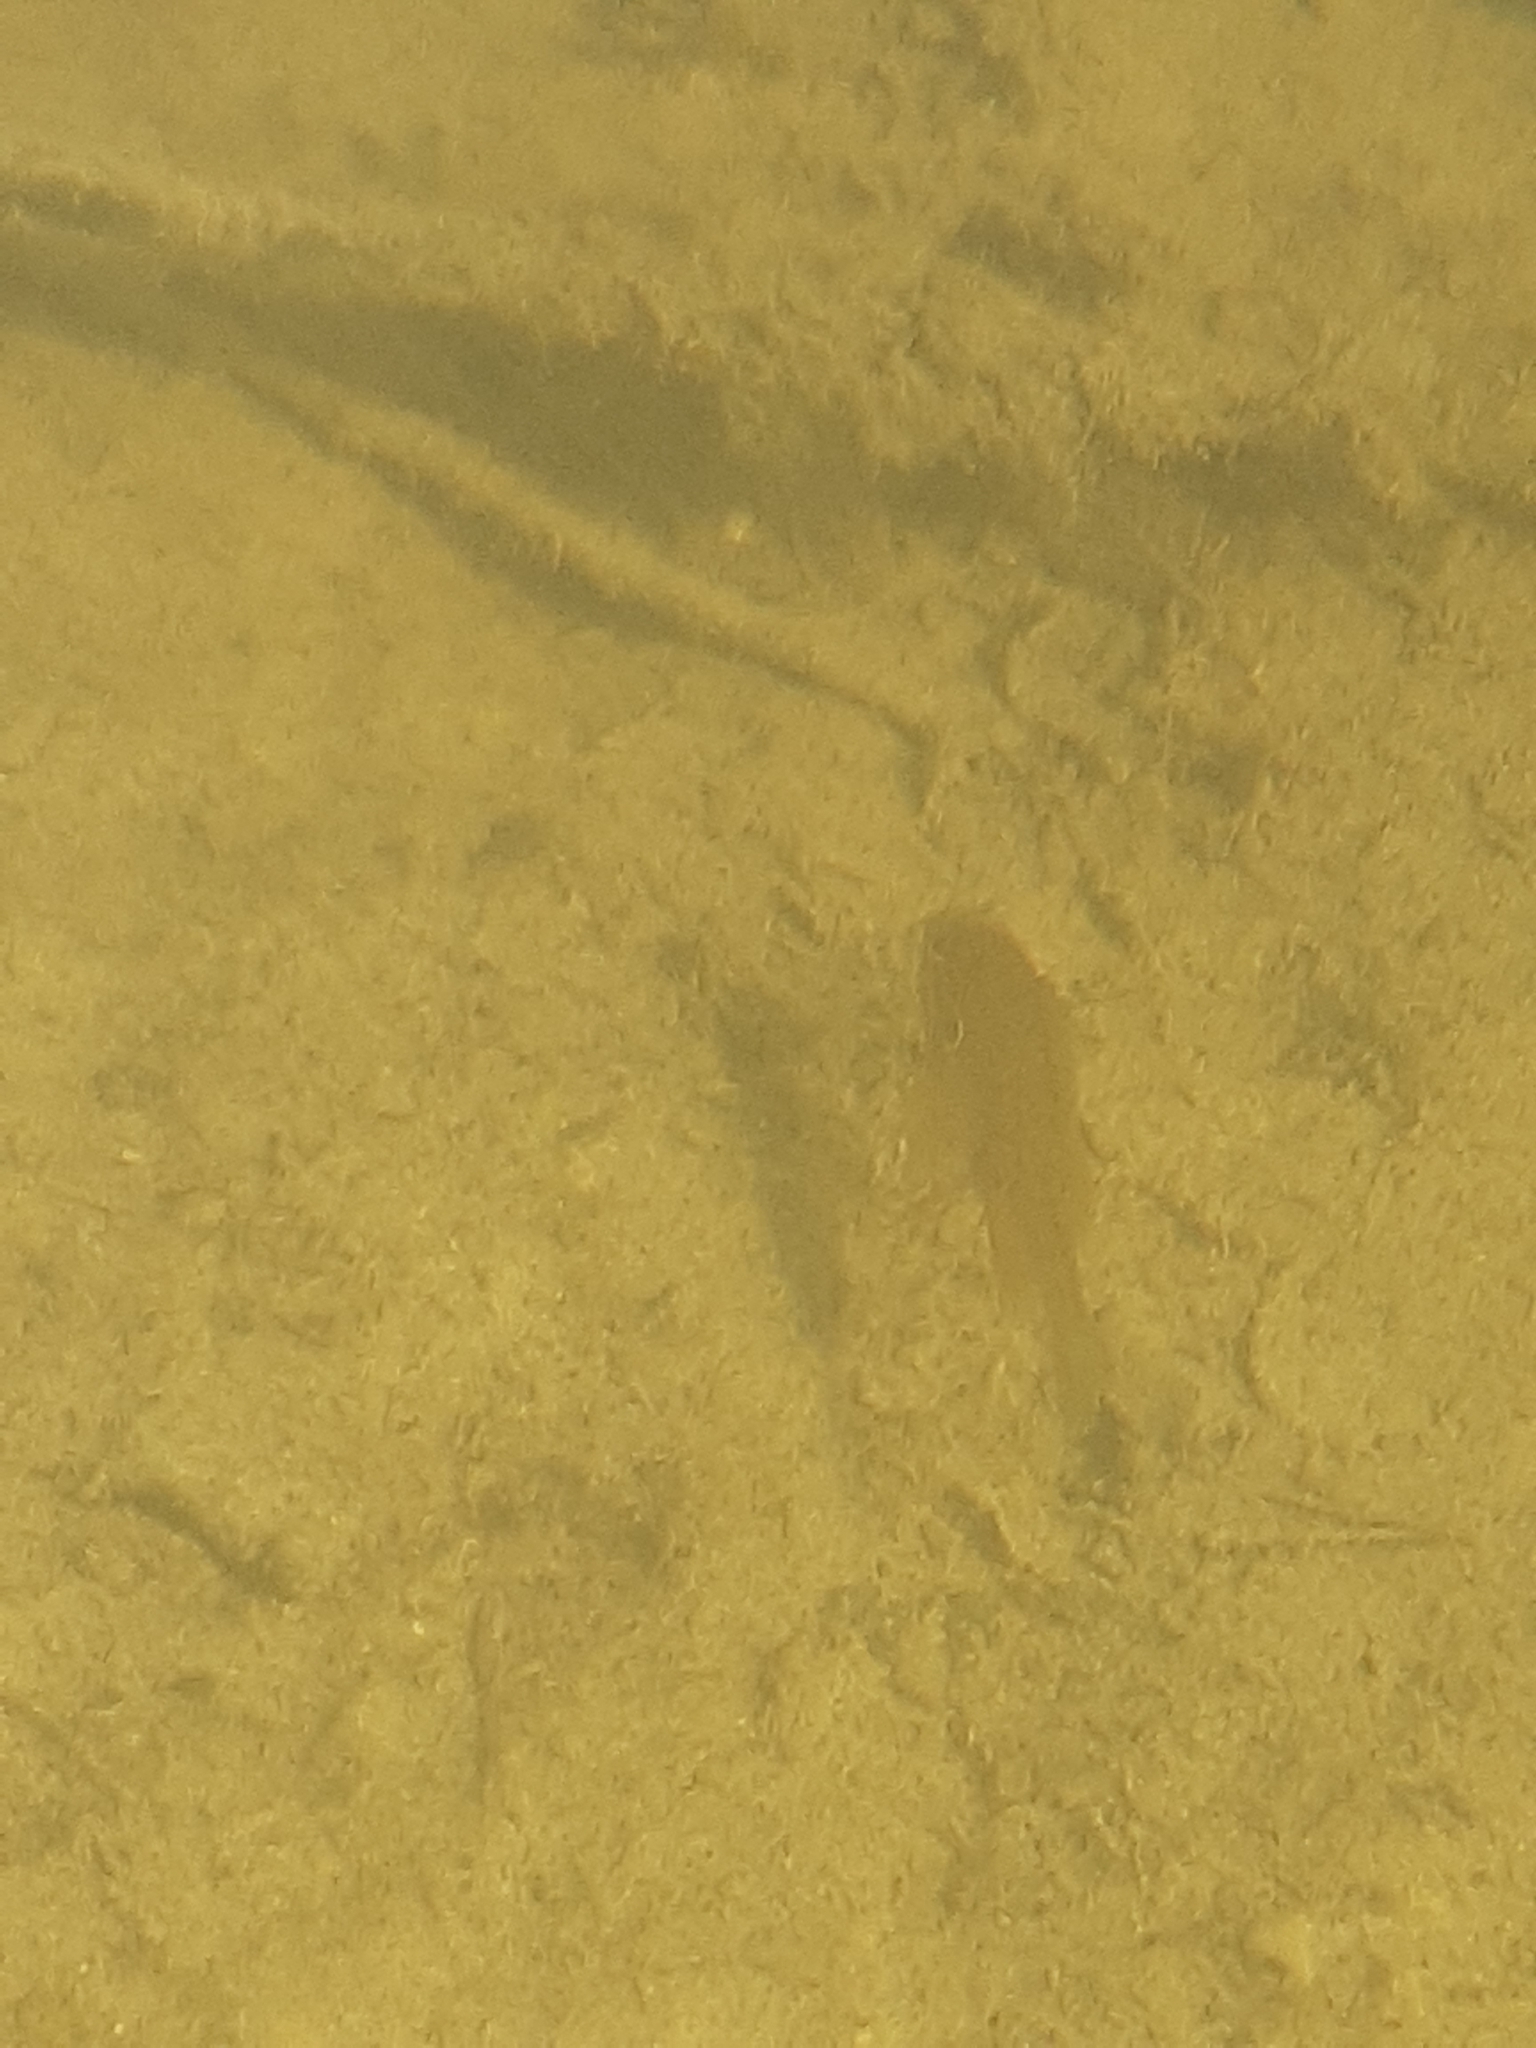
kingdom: Animalia
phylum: Chordata
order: Perciformes
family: Centrarchidae
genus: Lepomis
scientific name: Lepomis gibbosus
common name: Pumpkinseed
